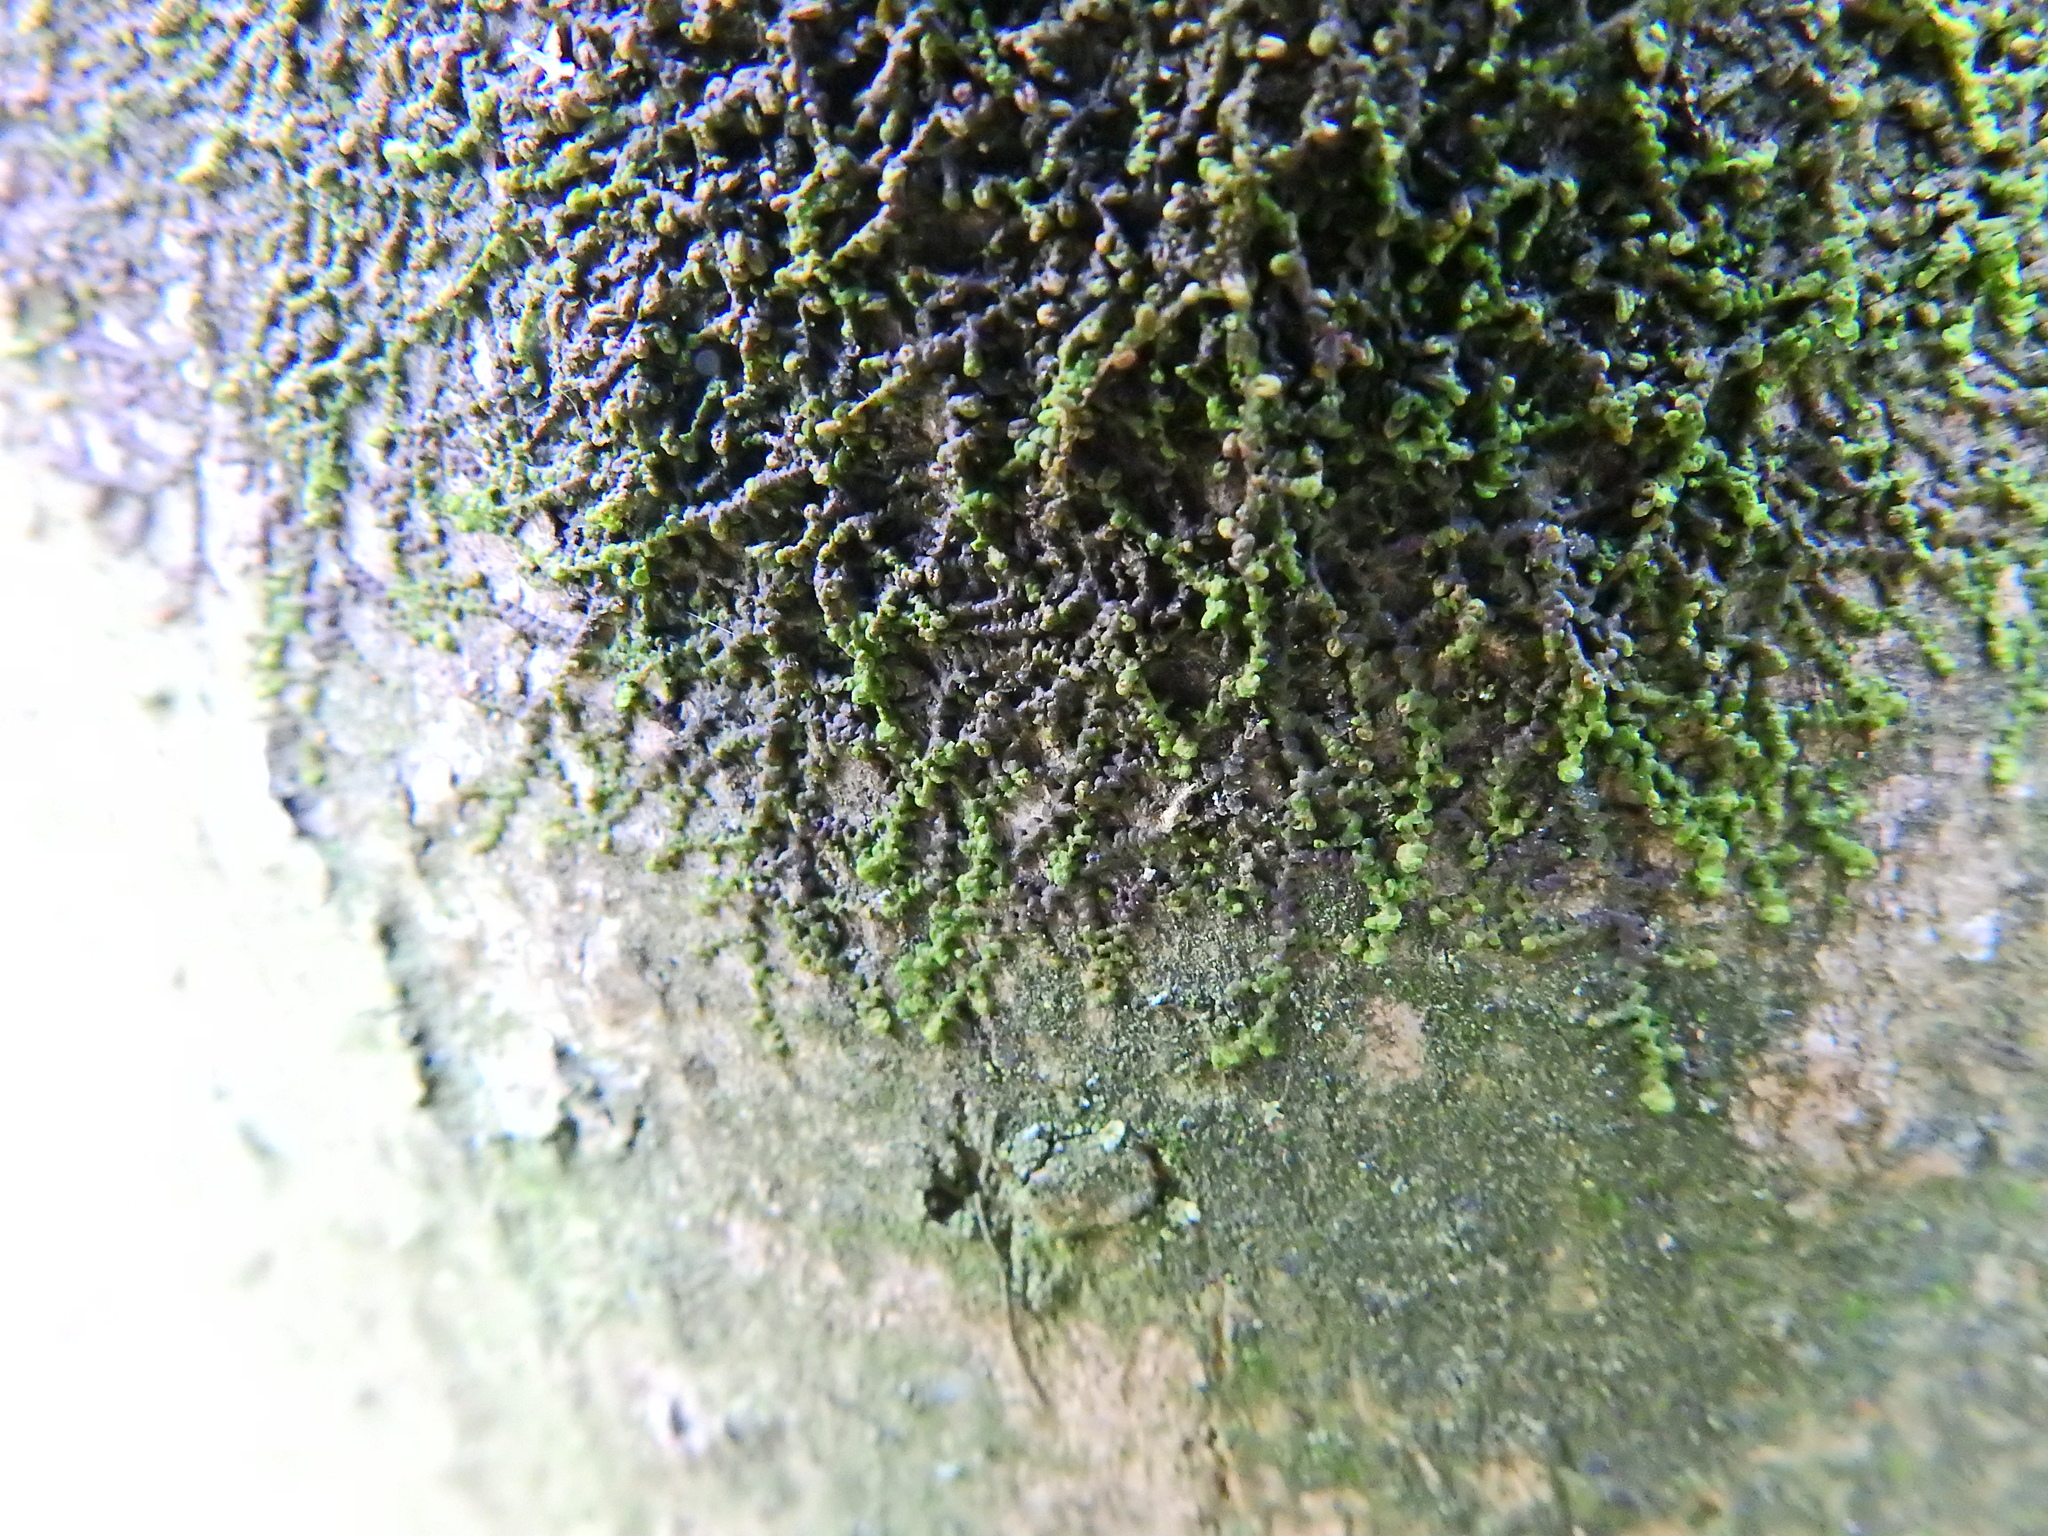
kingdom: Plantae
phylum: Marchantiophyta
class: Jungermanniopsida
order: Porellales
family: Frullaniaceae
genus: Frullania
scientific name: Frullania dilatata
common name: Dilated scalewort
